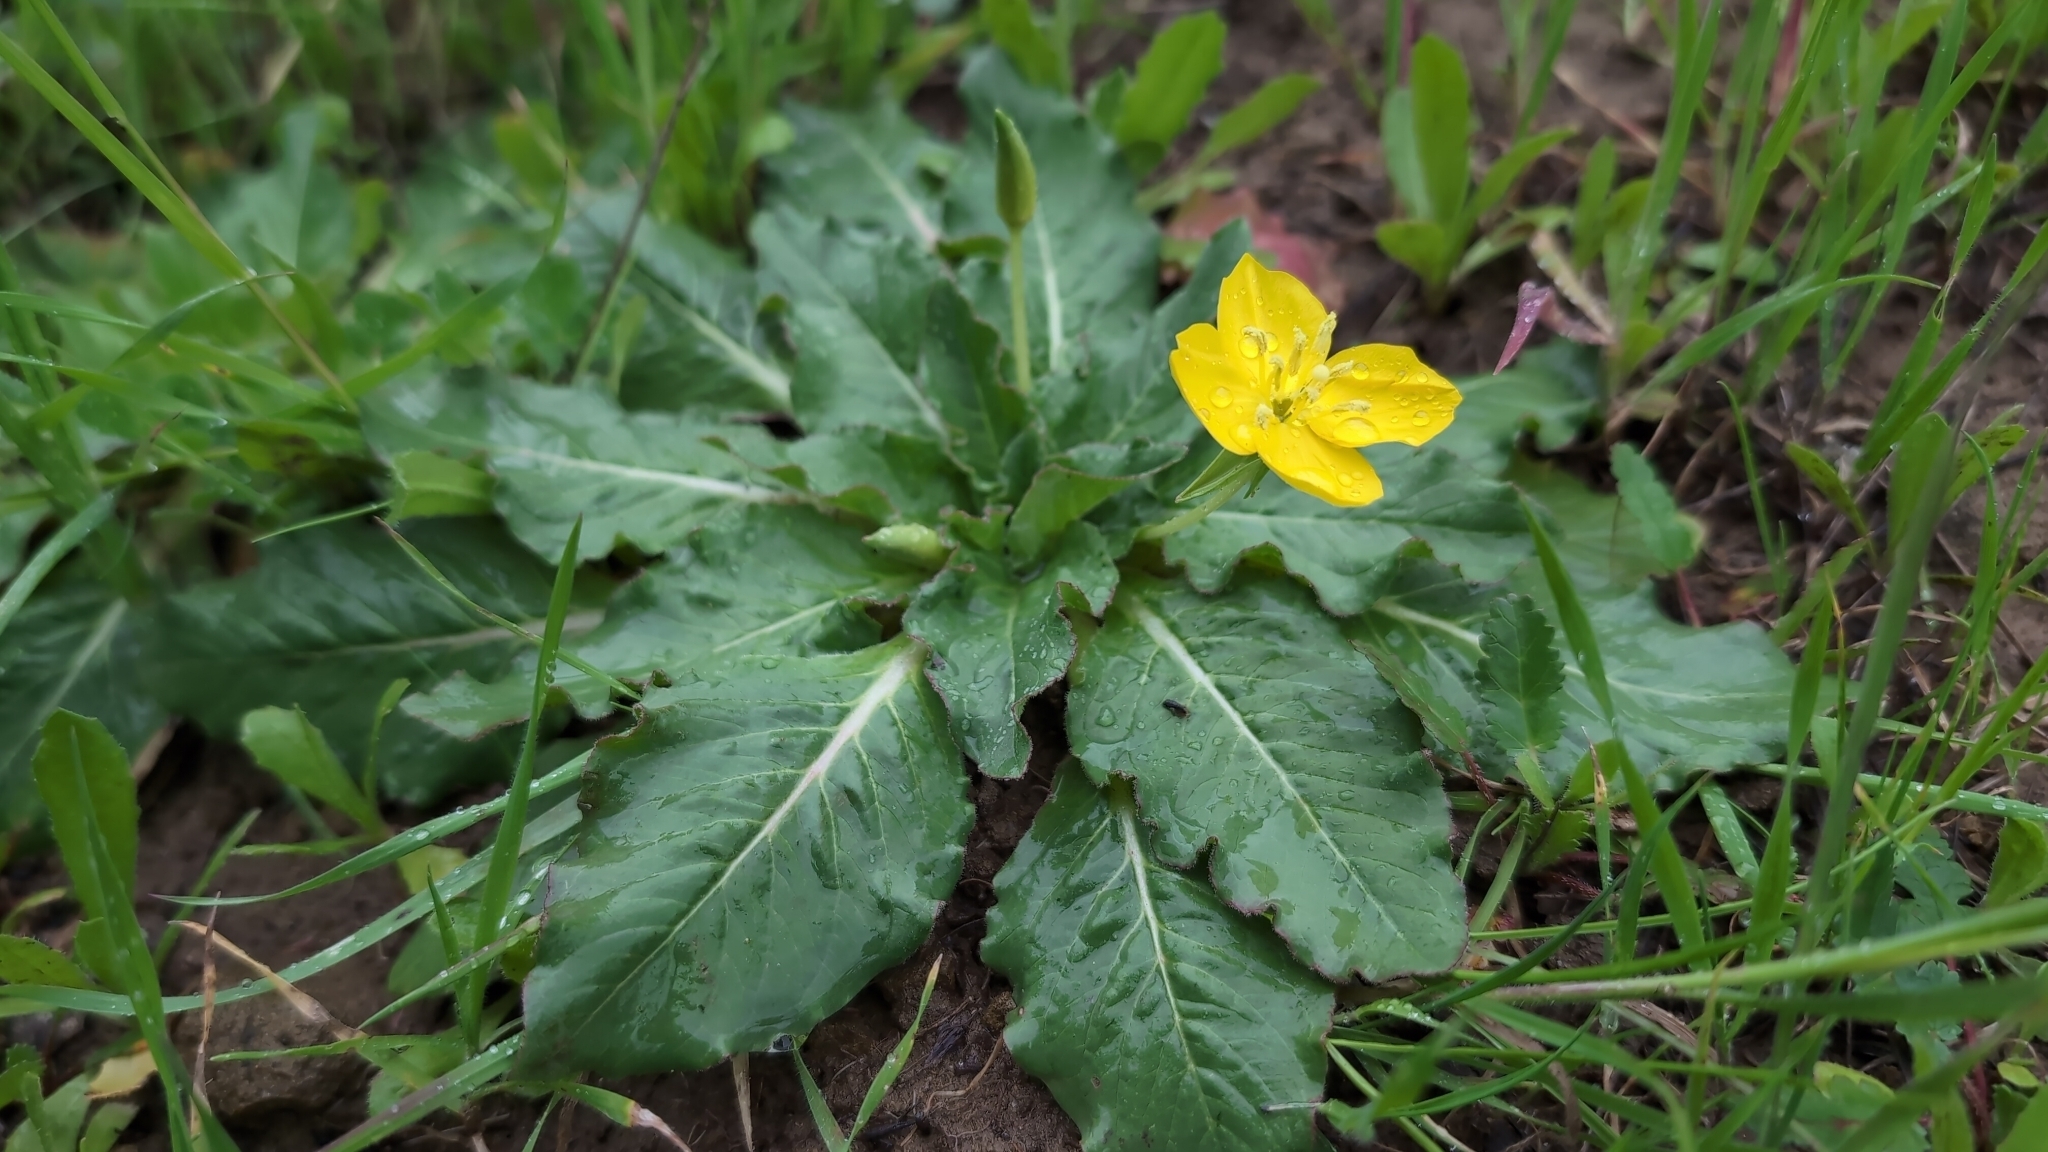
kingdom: Plantae
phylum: Tracheophyta
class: Magnoliopsida
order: Myrtales
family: Onagraceae
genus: Taraxia
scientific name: Taraxia ovata
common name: Goldeneggs
